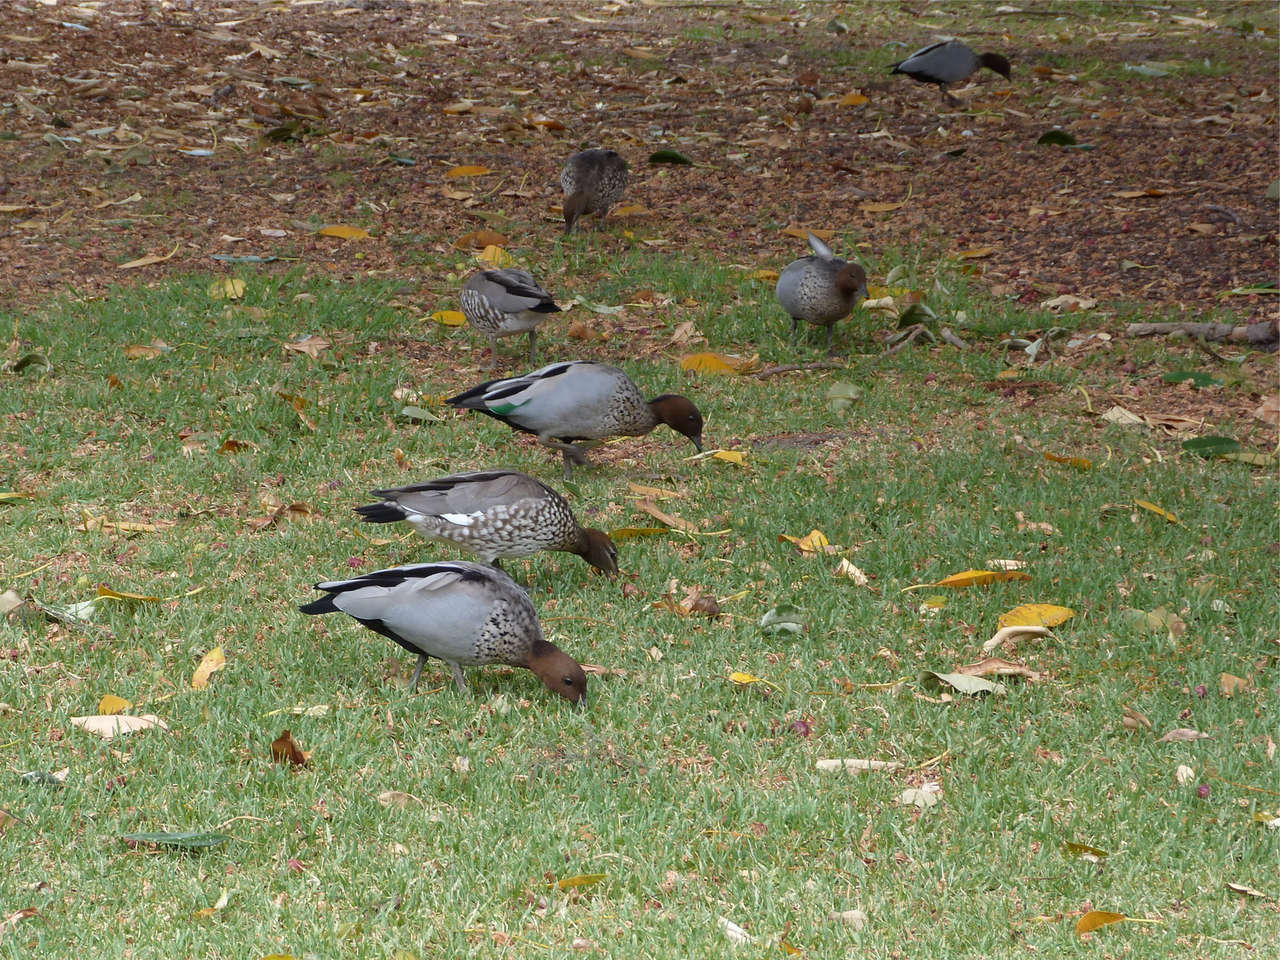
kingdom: Animalia
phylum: Chordata
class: Aves
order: Anseriformes
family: Anatidae
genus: Chenonetta
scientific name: Chenonetta jubata
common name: Maned duck
